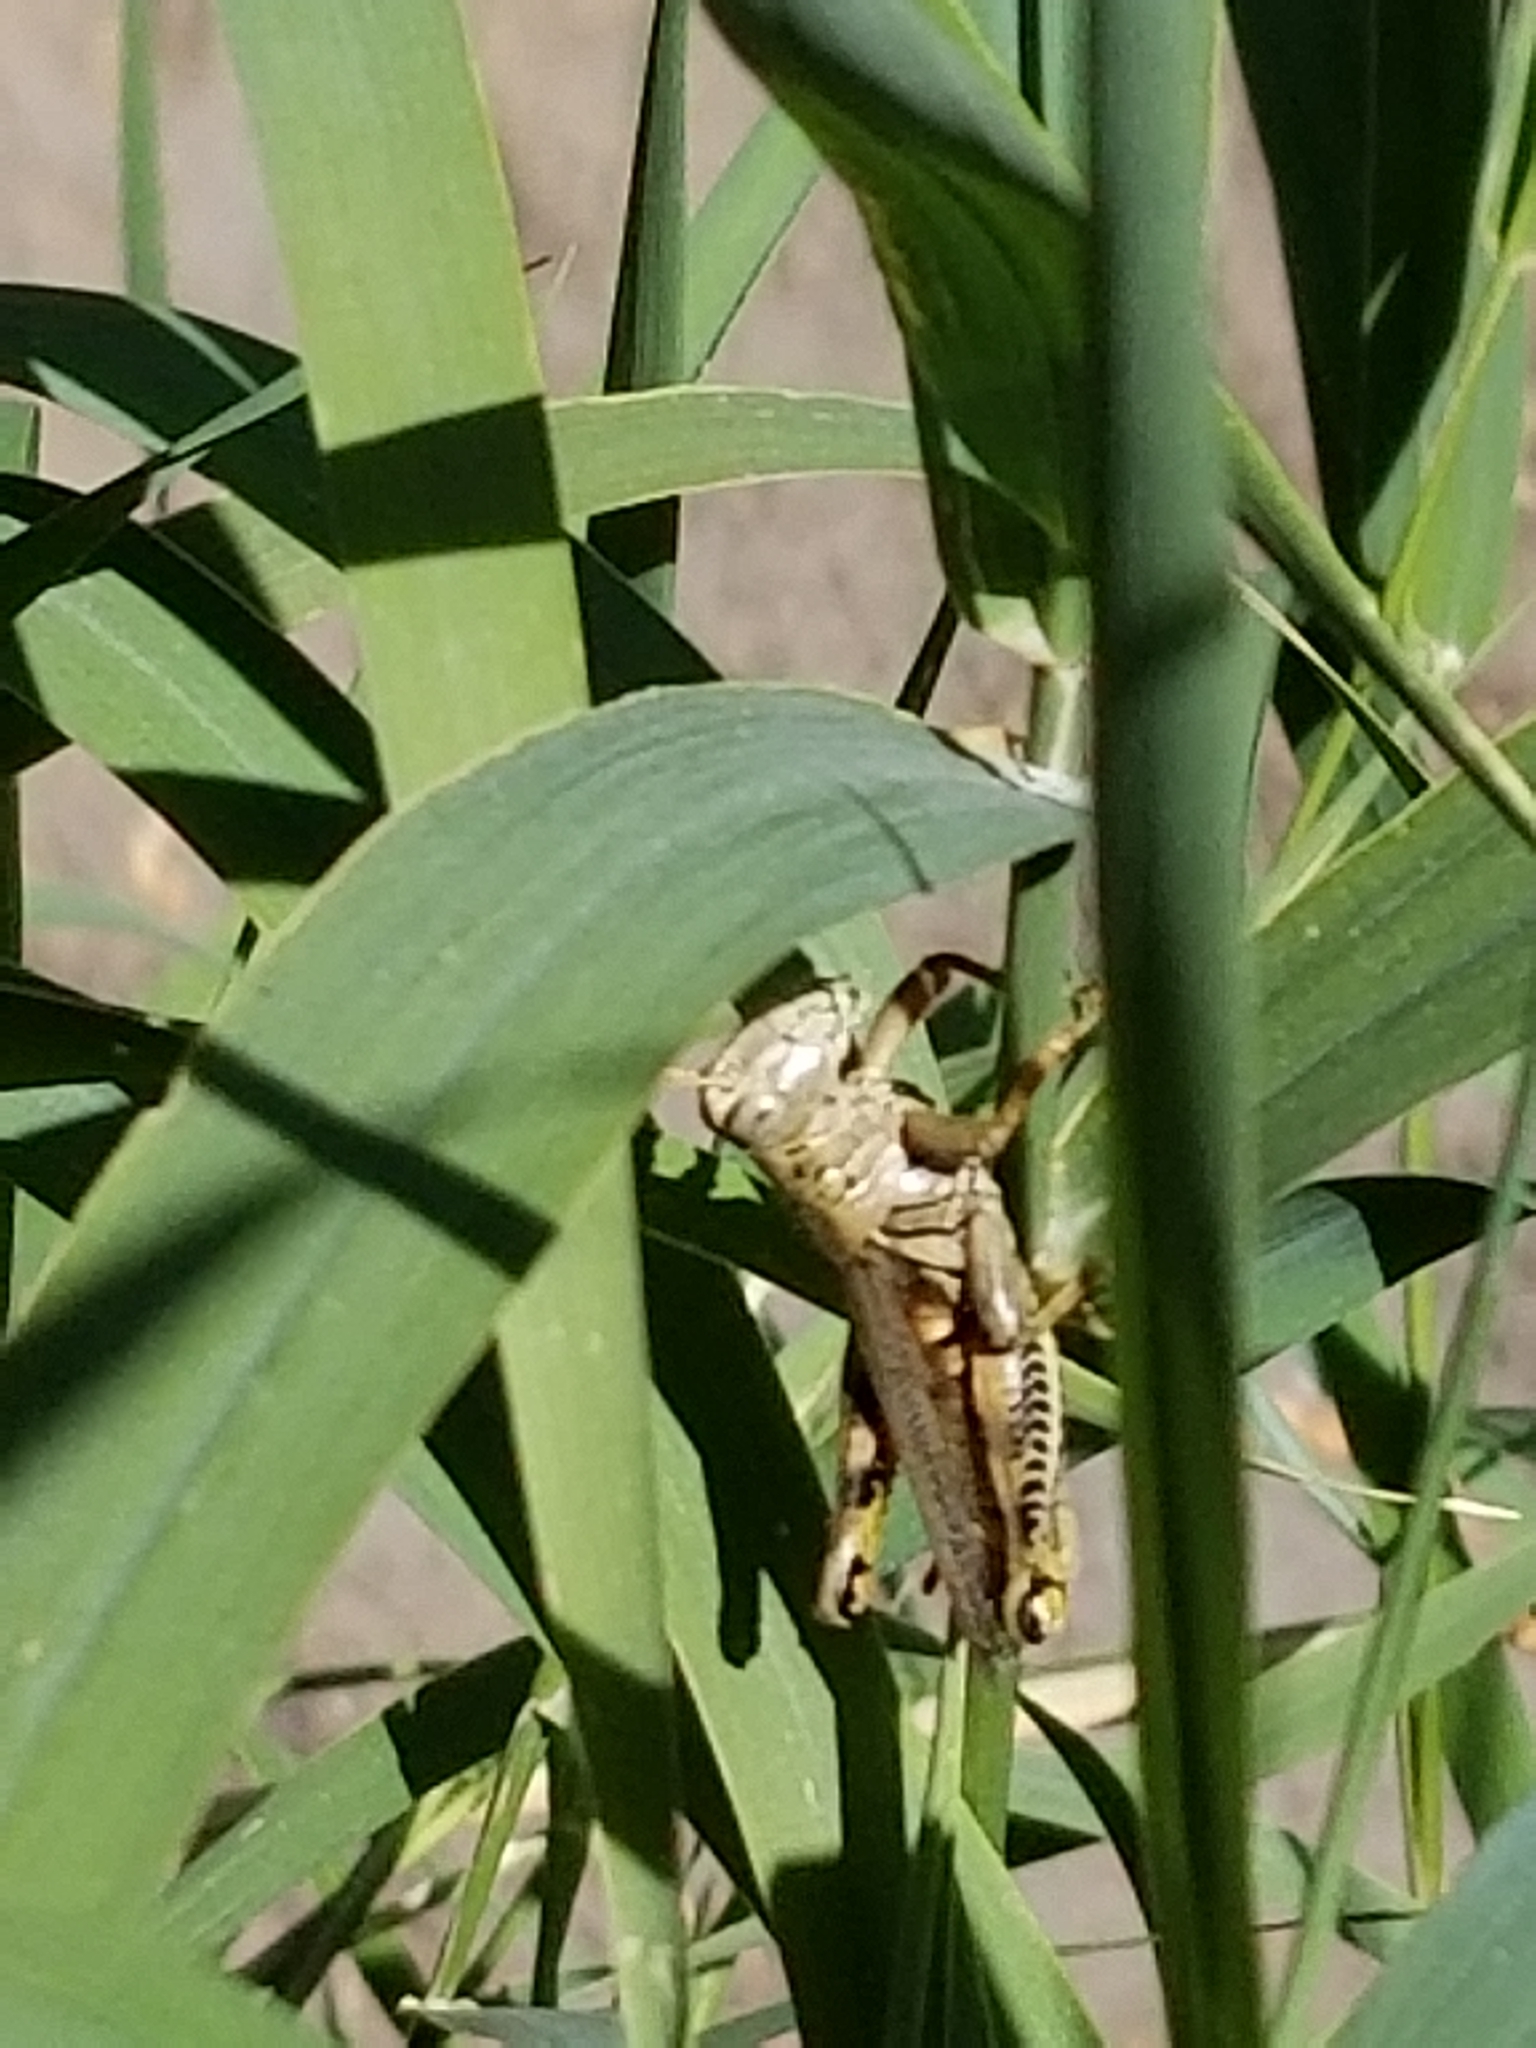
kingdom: Animalia
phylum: Arthropoda
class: Insecta
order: Orthoptera
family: Acrididae
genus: Melanoplus
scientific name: Melanoplus differentialis
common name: Differential grasshopper
